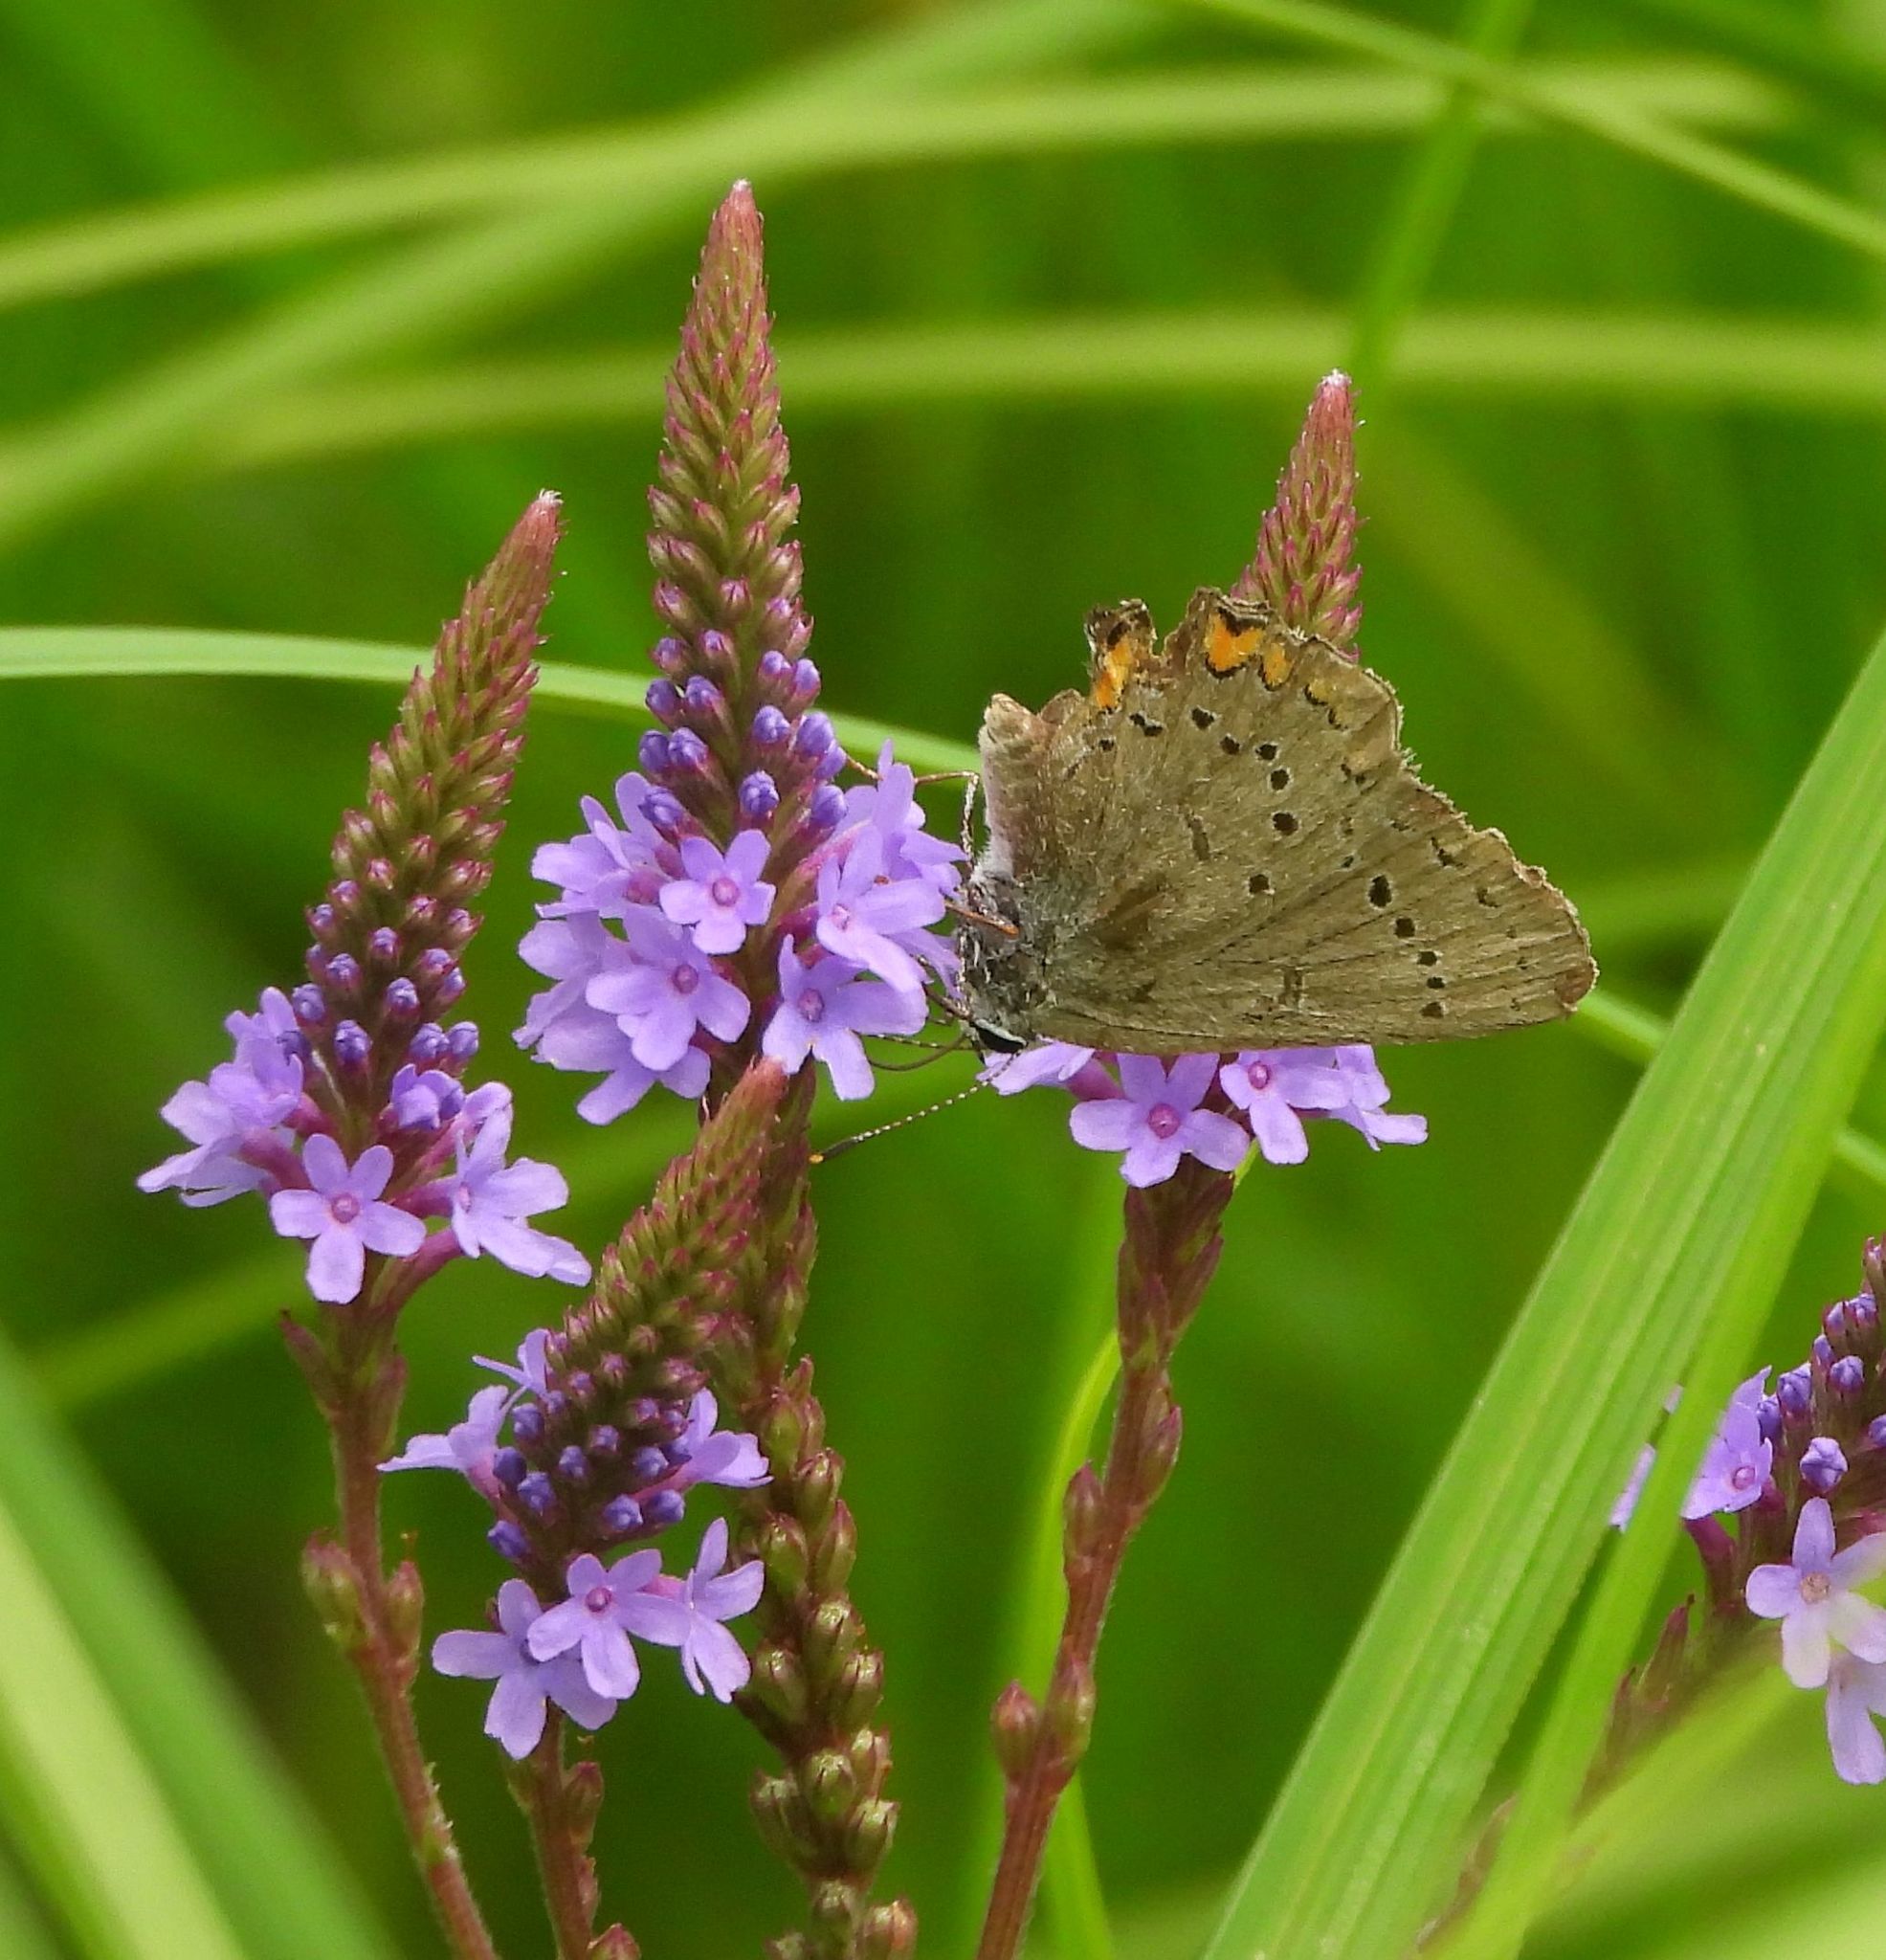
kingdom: Plantae
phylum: Tracheophyta
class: Magnoliopsida
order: Lamiales
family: Verbenaceae
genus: Verbena
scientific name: Verbena hastata
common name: American blue vervain
